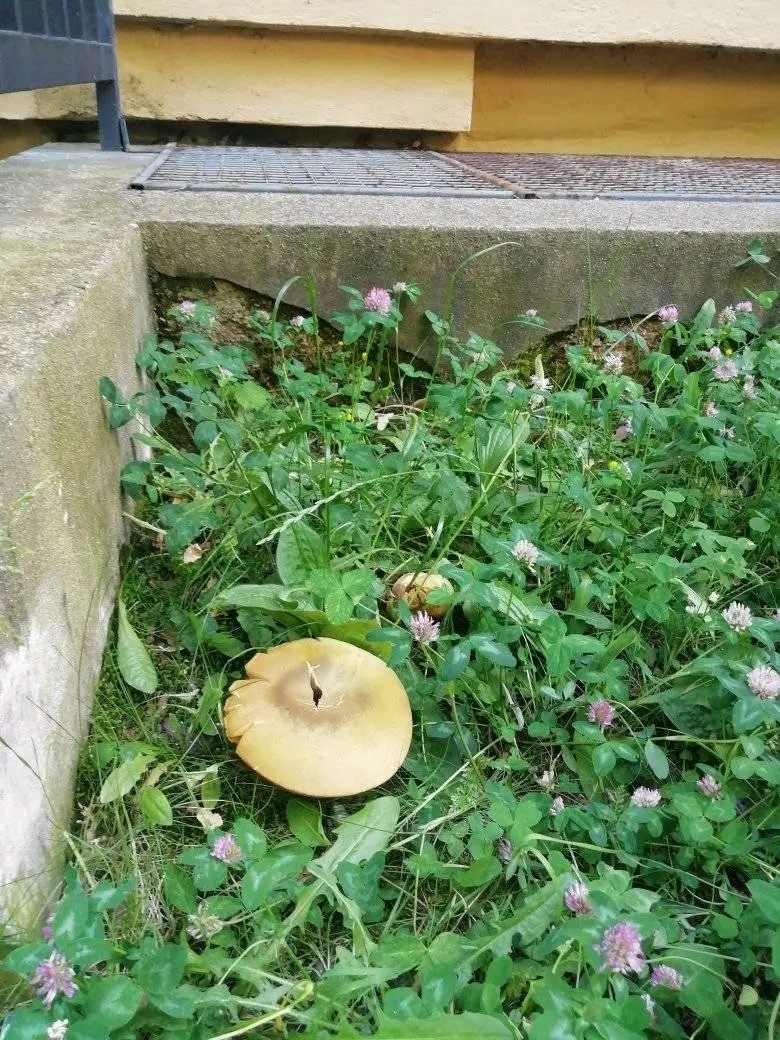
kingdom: Fungi
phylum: Basidiomycota
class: Agaricomycetes
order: Boletales
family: Boletaceae
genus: Suillellus
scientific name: Suillellus luridus
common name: Lurid bolete
